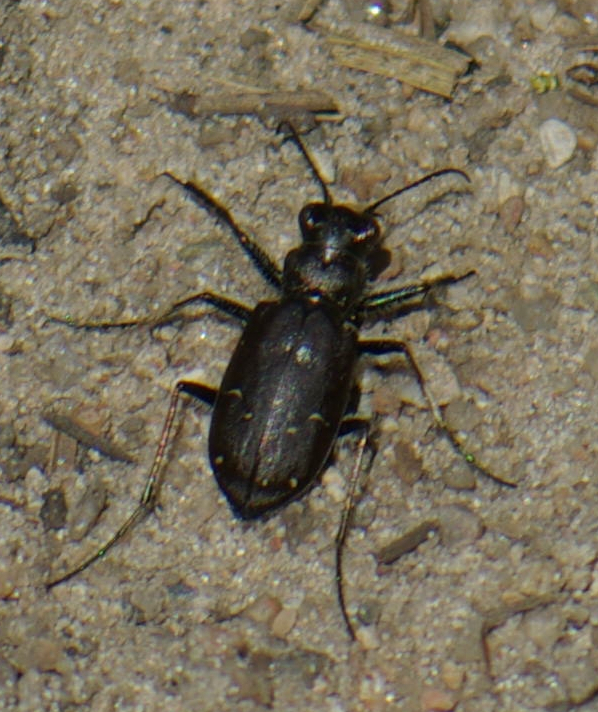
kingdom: Animalia
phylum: Arthropoda
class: Insecta
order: Coleoptera
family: Carabidae
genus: Cicindela
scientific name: Cicindela longilabris
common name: Boreal long-lipped tiger beetle
